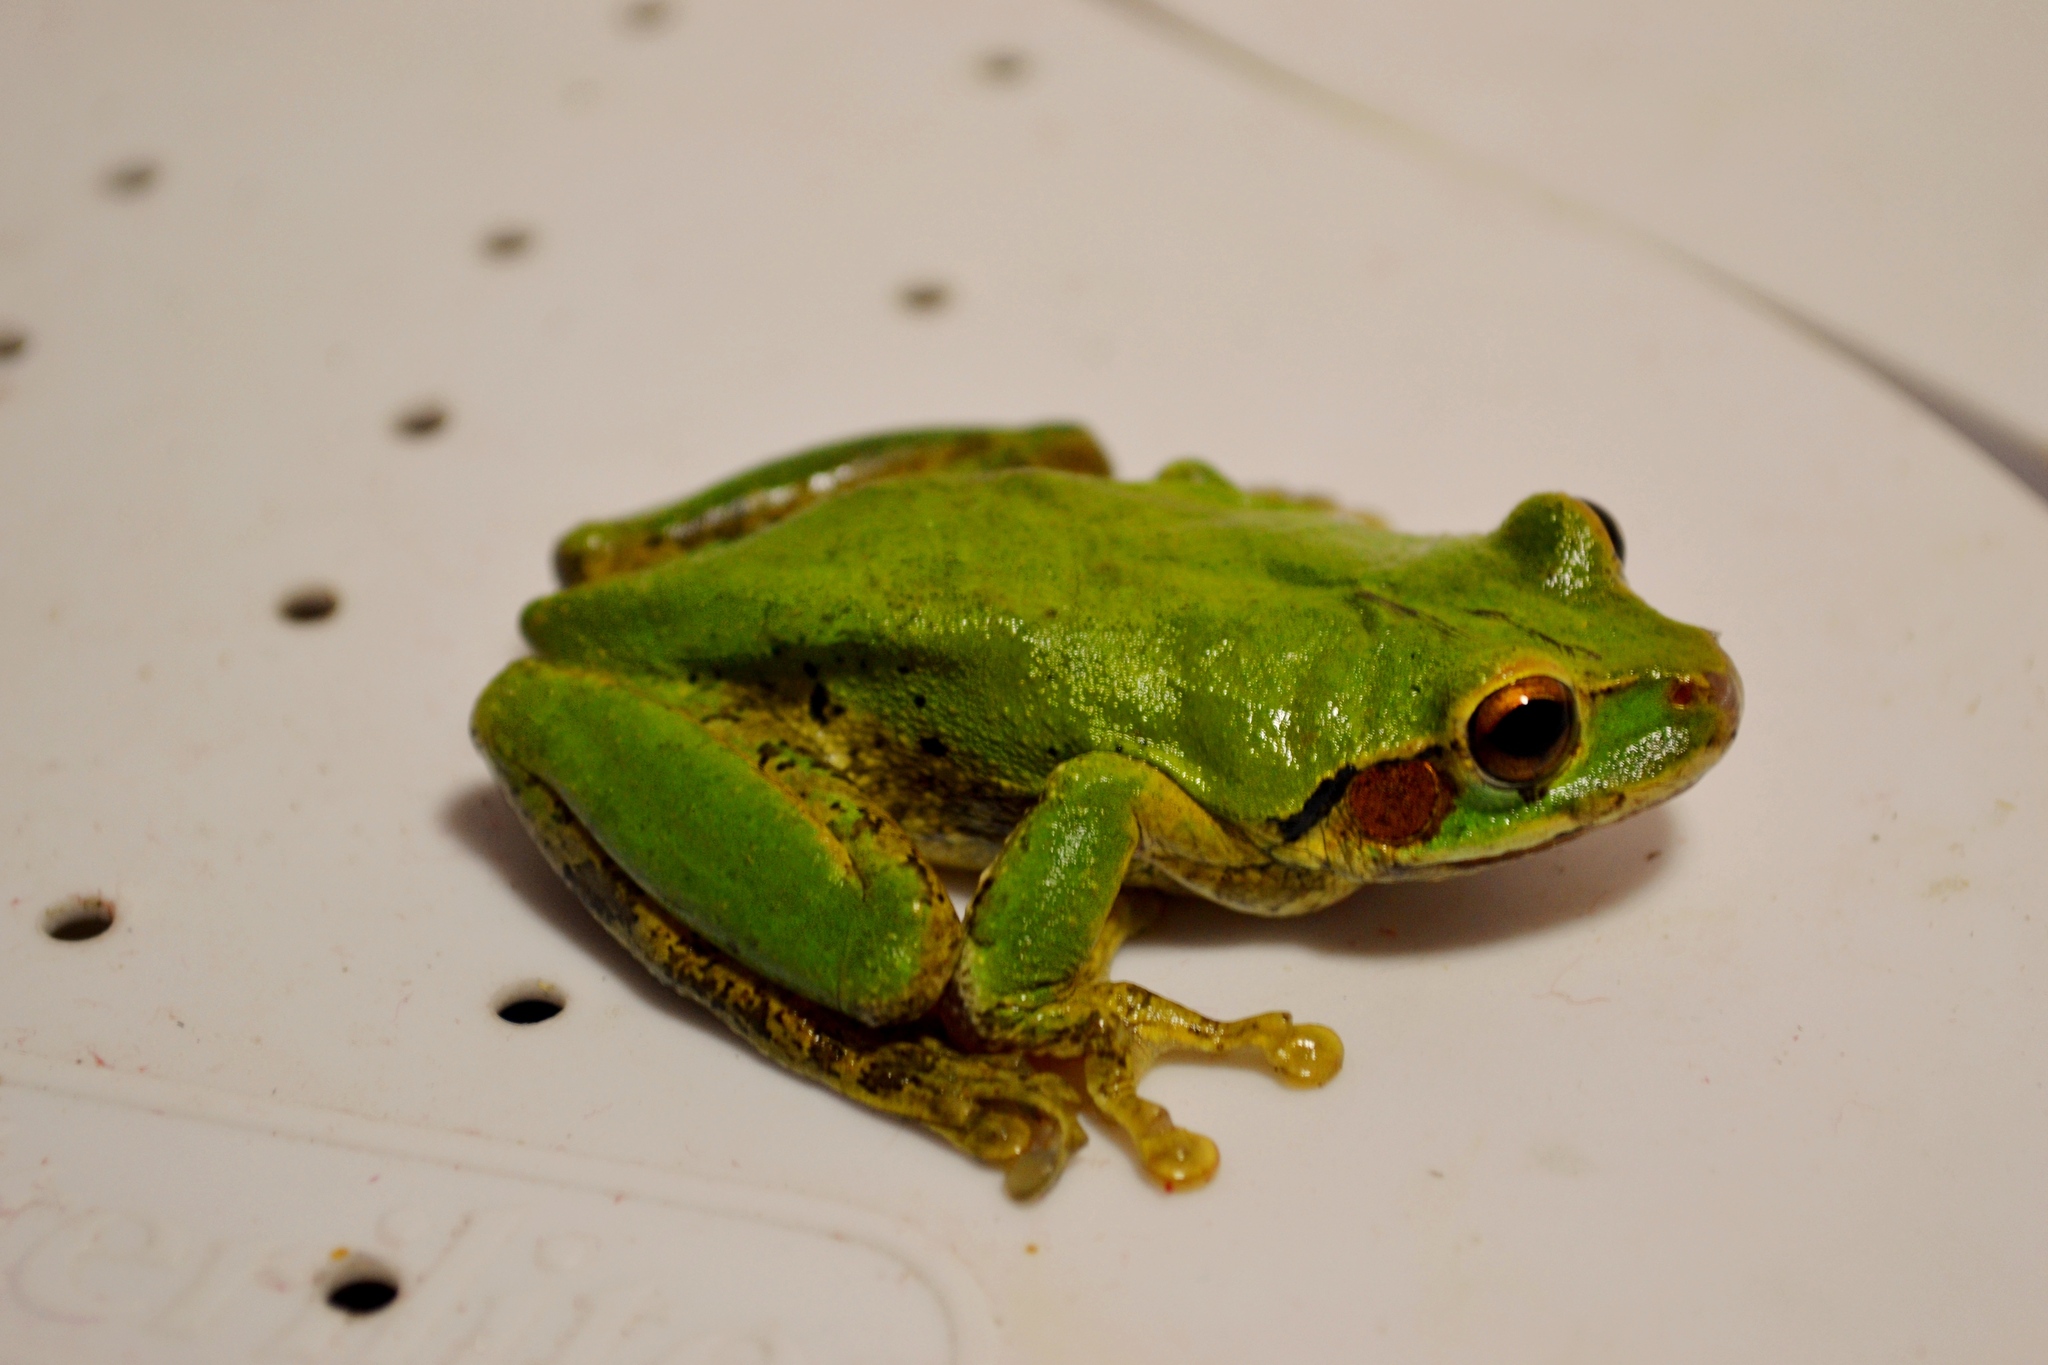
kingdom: Animalia
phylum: Chordata
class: Amphibia
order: Anura
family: Hylidae
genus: Smilisca
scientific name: Smilisca baudinii
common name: Mexican smilisca
